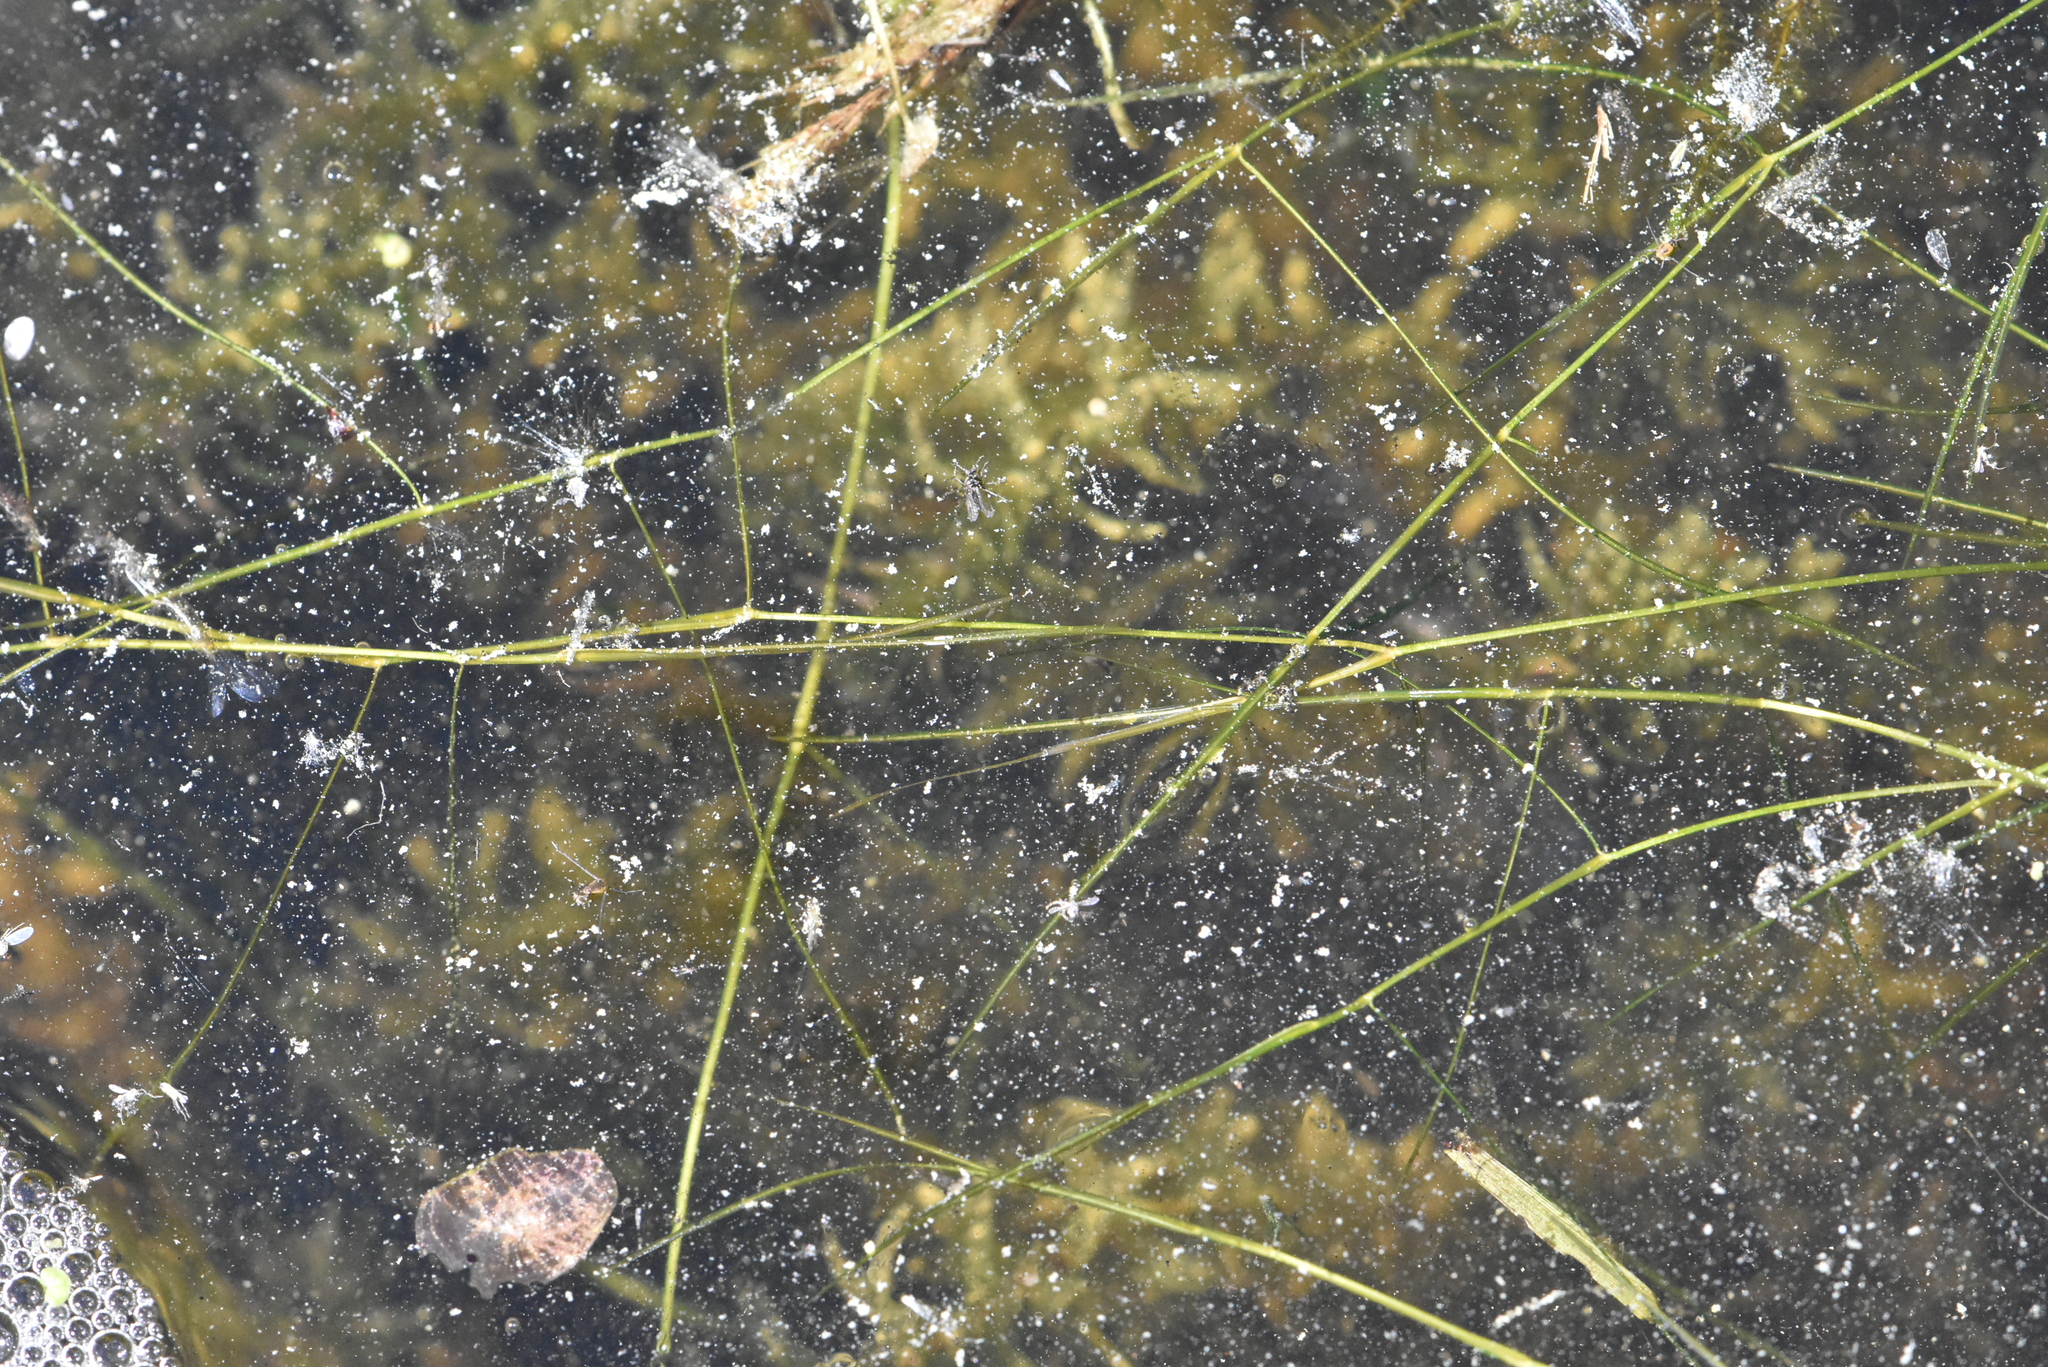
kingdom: Plantae
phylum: Tracheophyta
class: Liliopsida
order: Alismatales
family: Potamogetonaceae
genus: Potamogeton
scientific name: Potamogeton trichoides
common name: Hairlike pondweed
